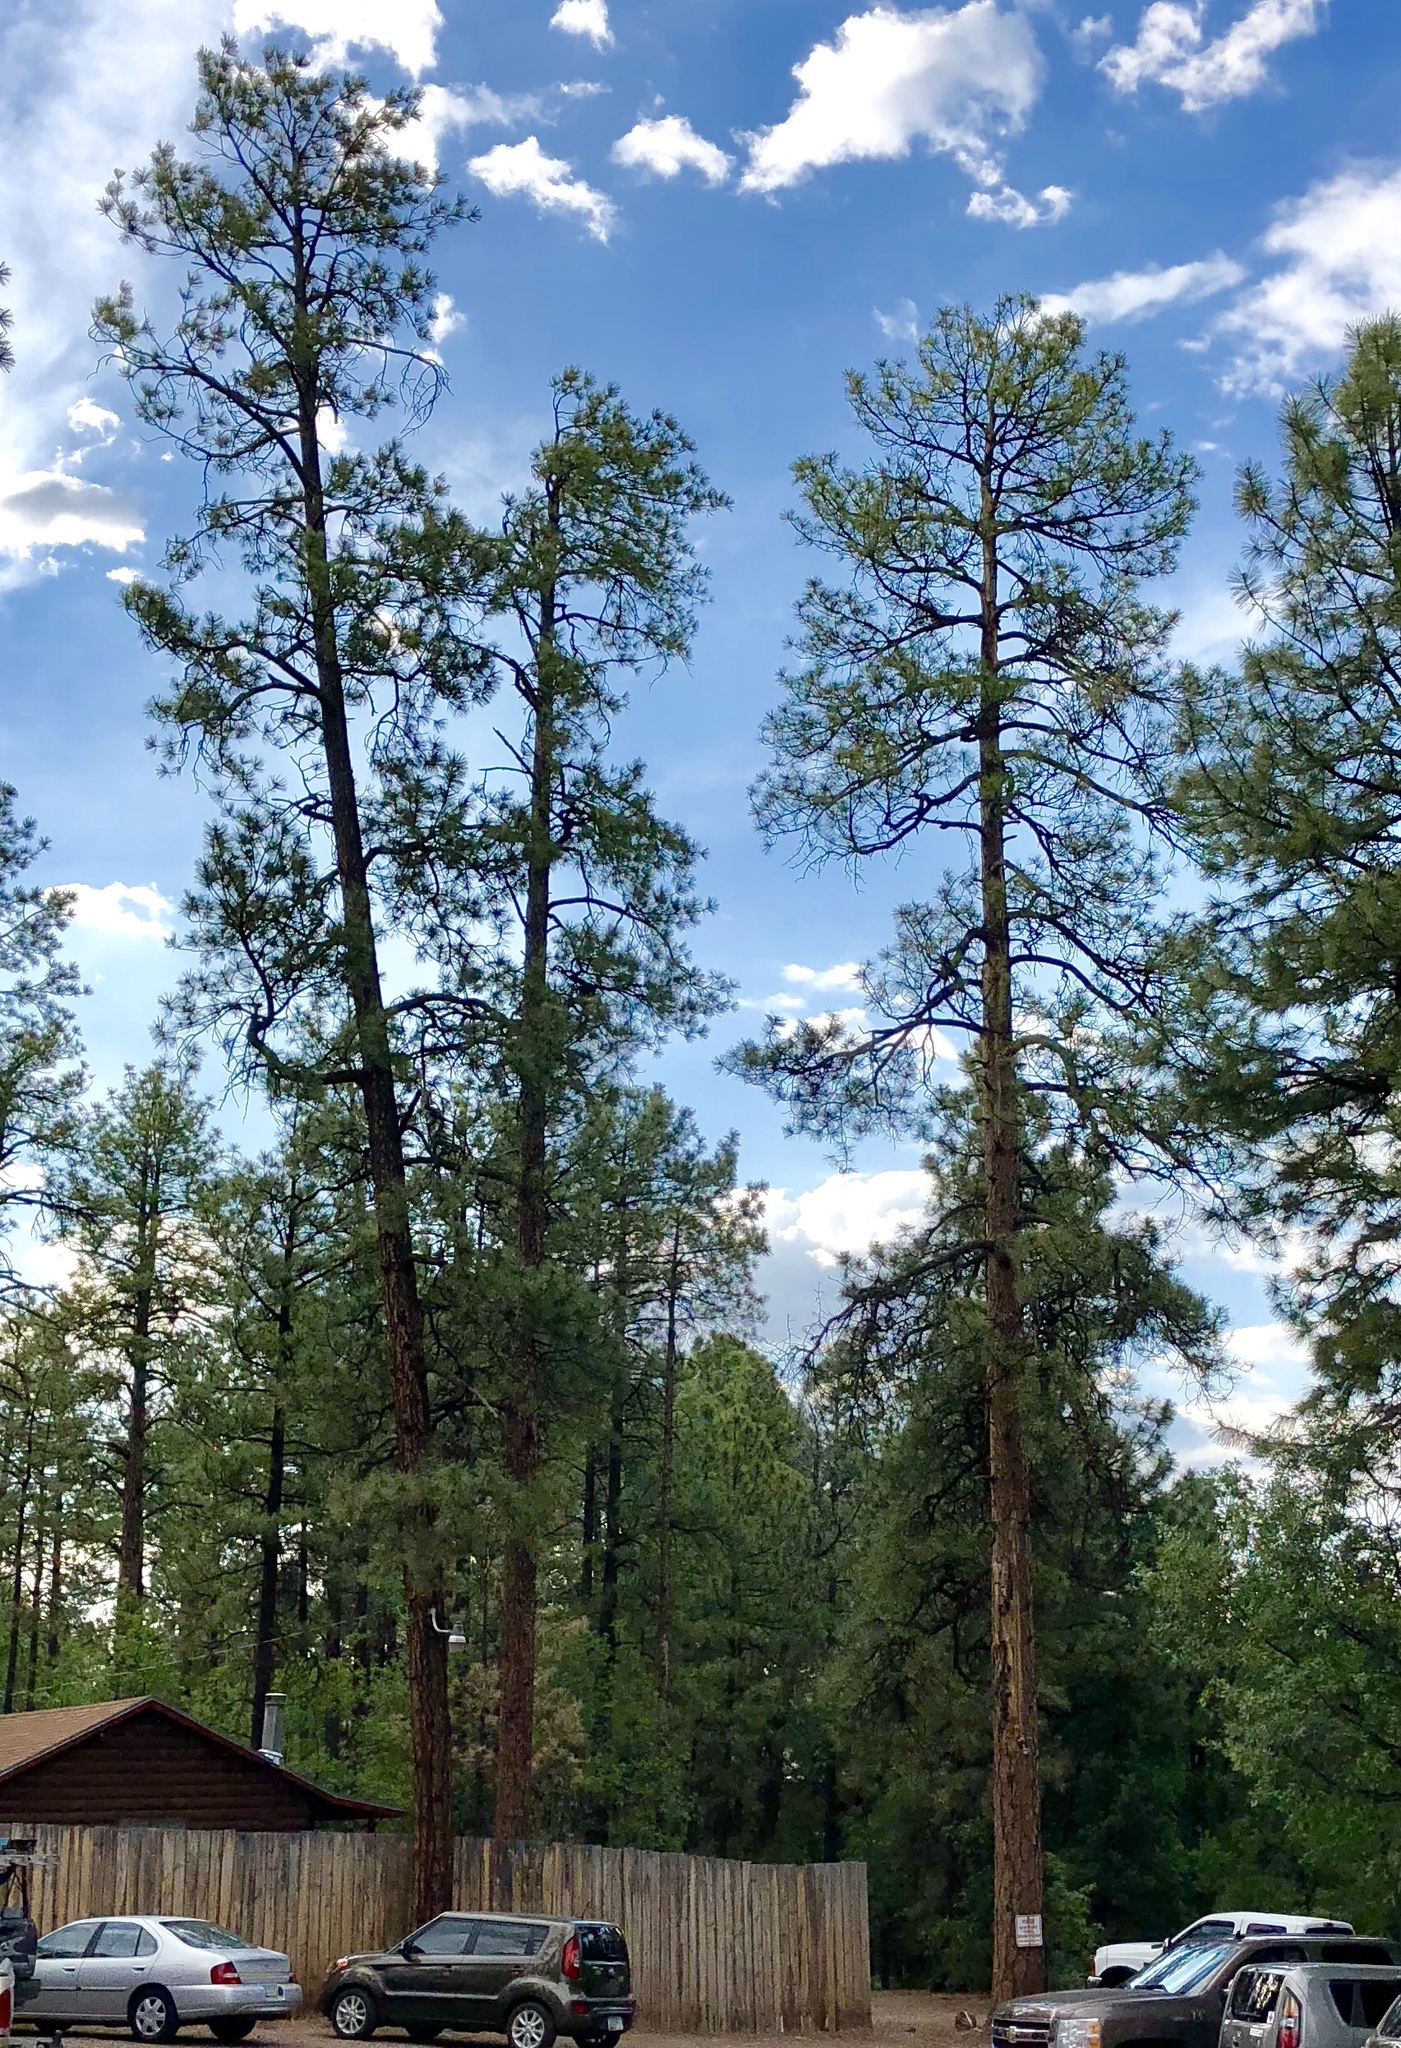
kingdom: Plantae
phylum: Tracheophyta
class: Pinopsida
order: Pinales
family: Pinaceae
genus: Pinus
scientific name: Pinus ponderosa
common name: Western yellow-pine
